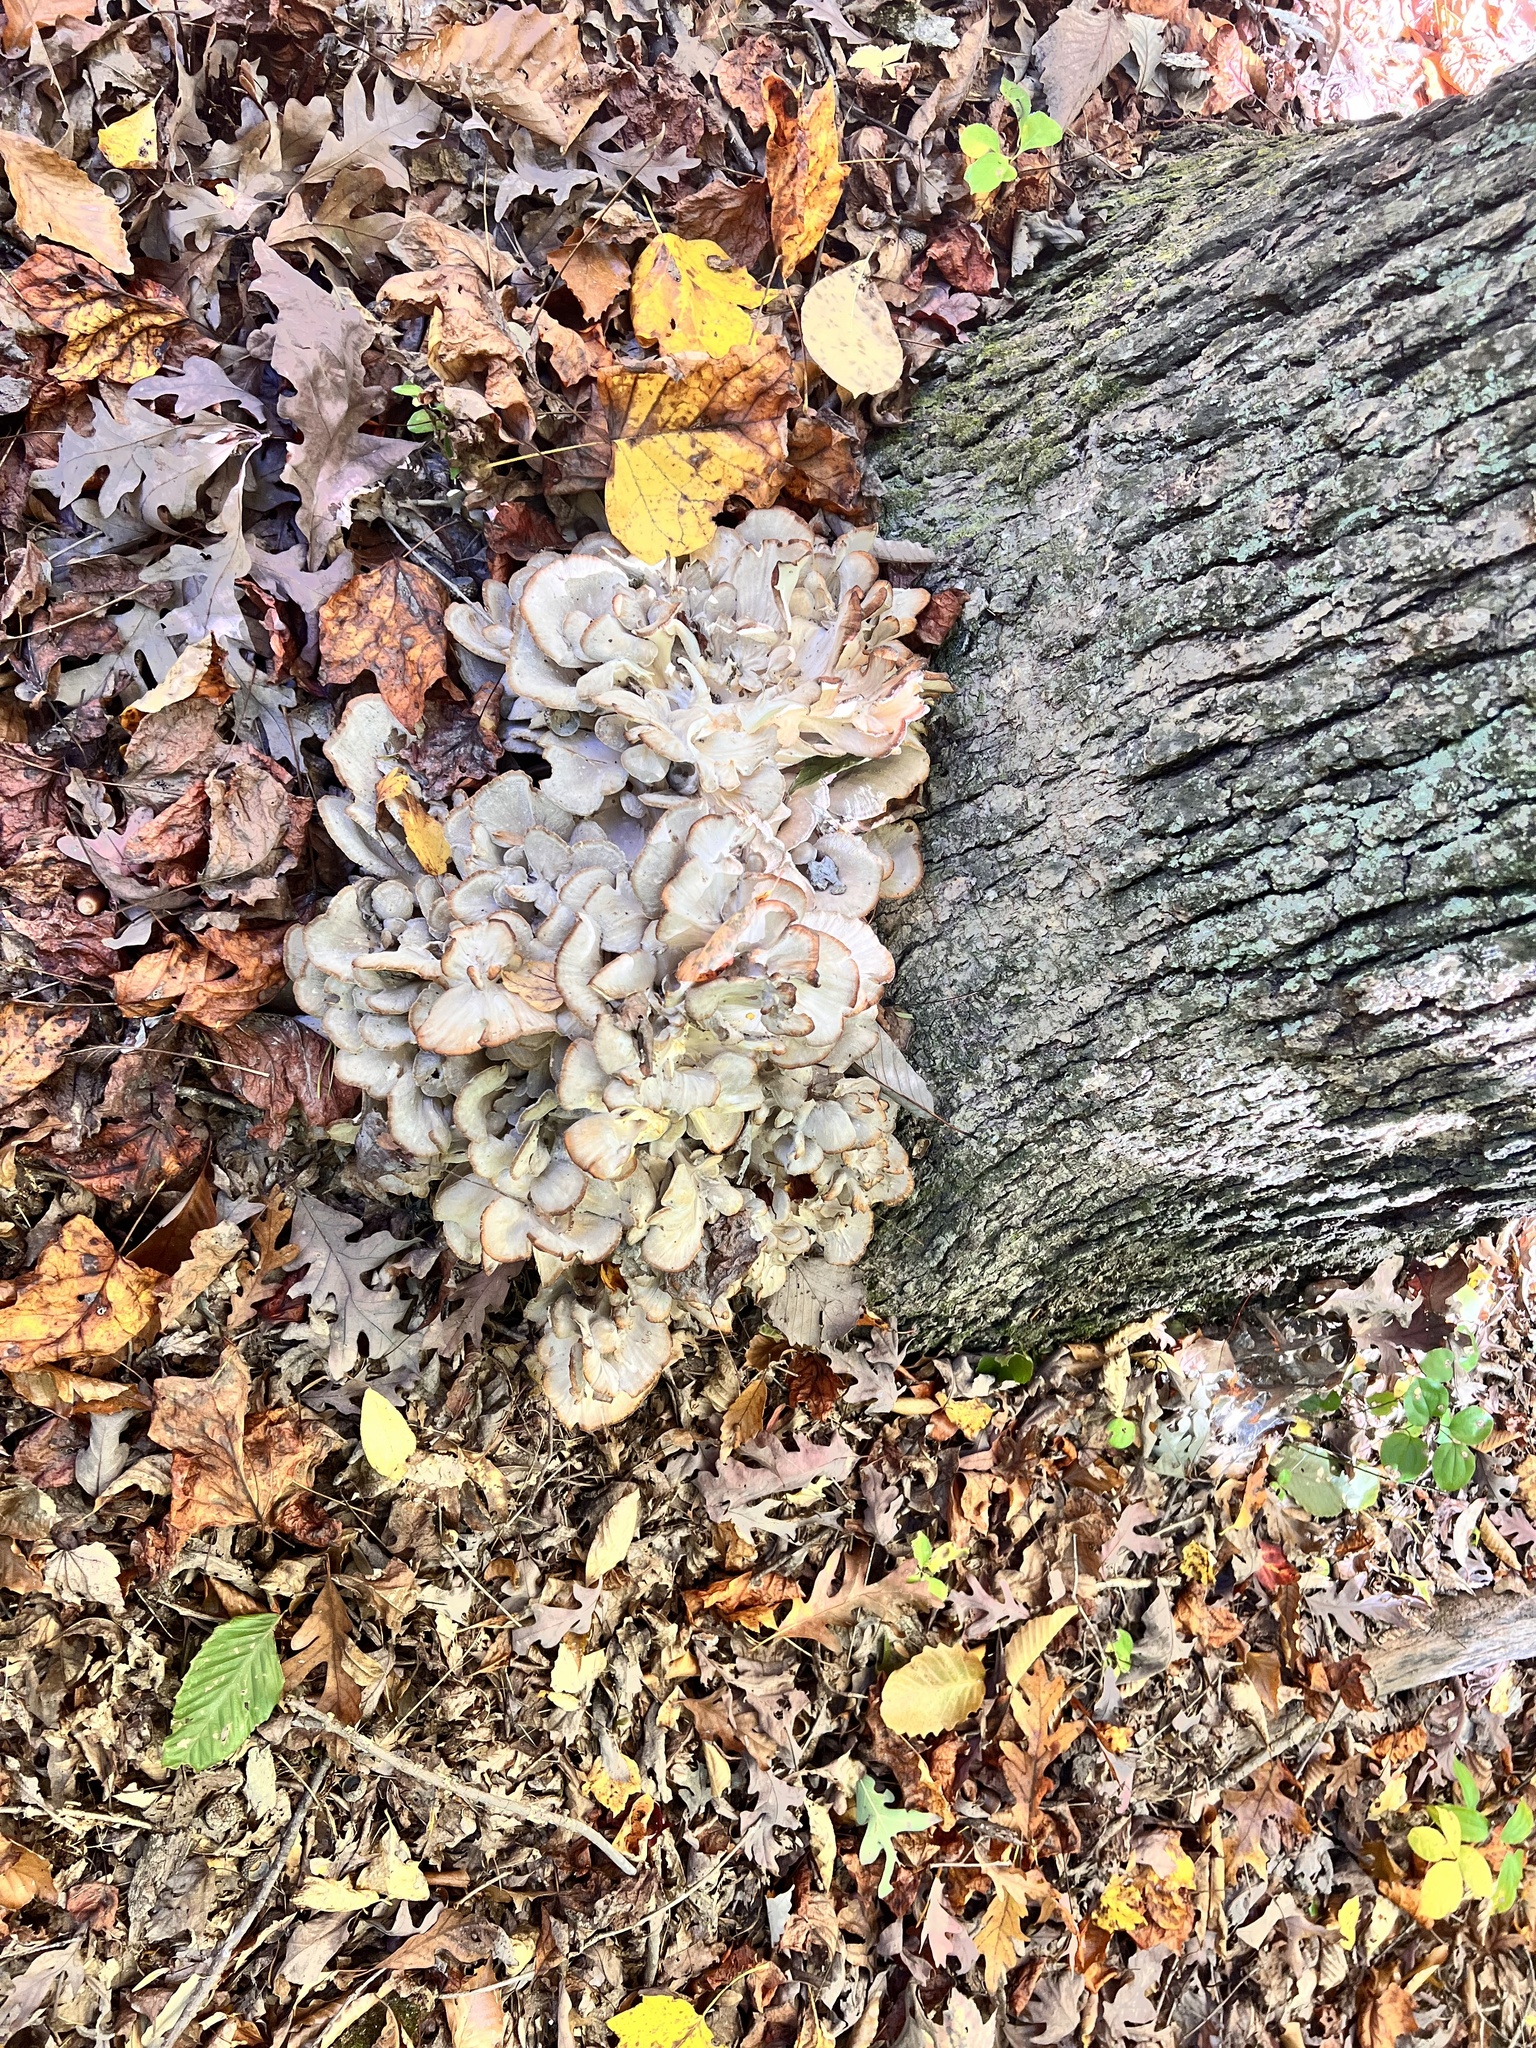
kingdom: Fungi
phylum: Basidiomycota
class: Agaricomycetes
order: Polyporales
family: Grifolaceae
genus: Grifola
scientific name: Grifola frondosa
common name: Hen of the woods
